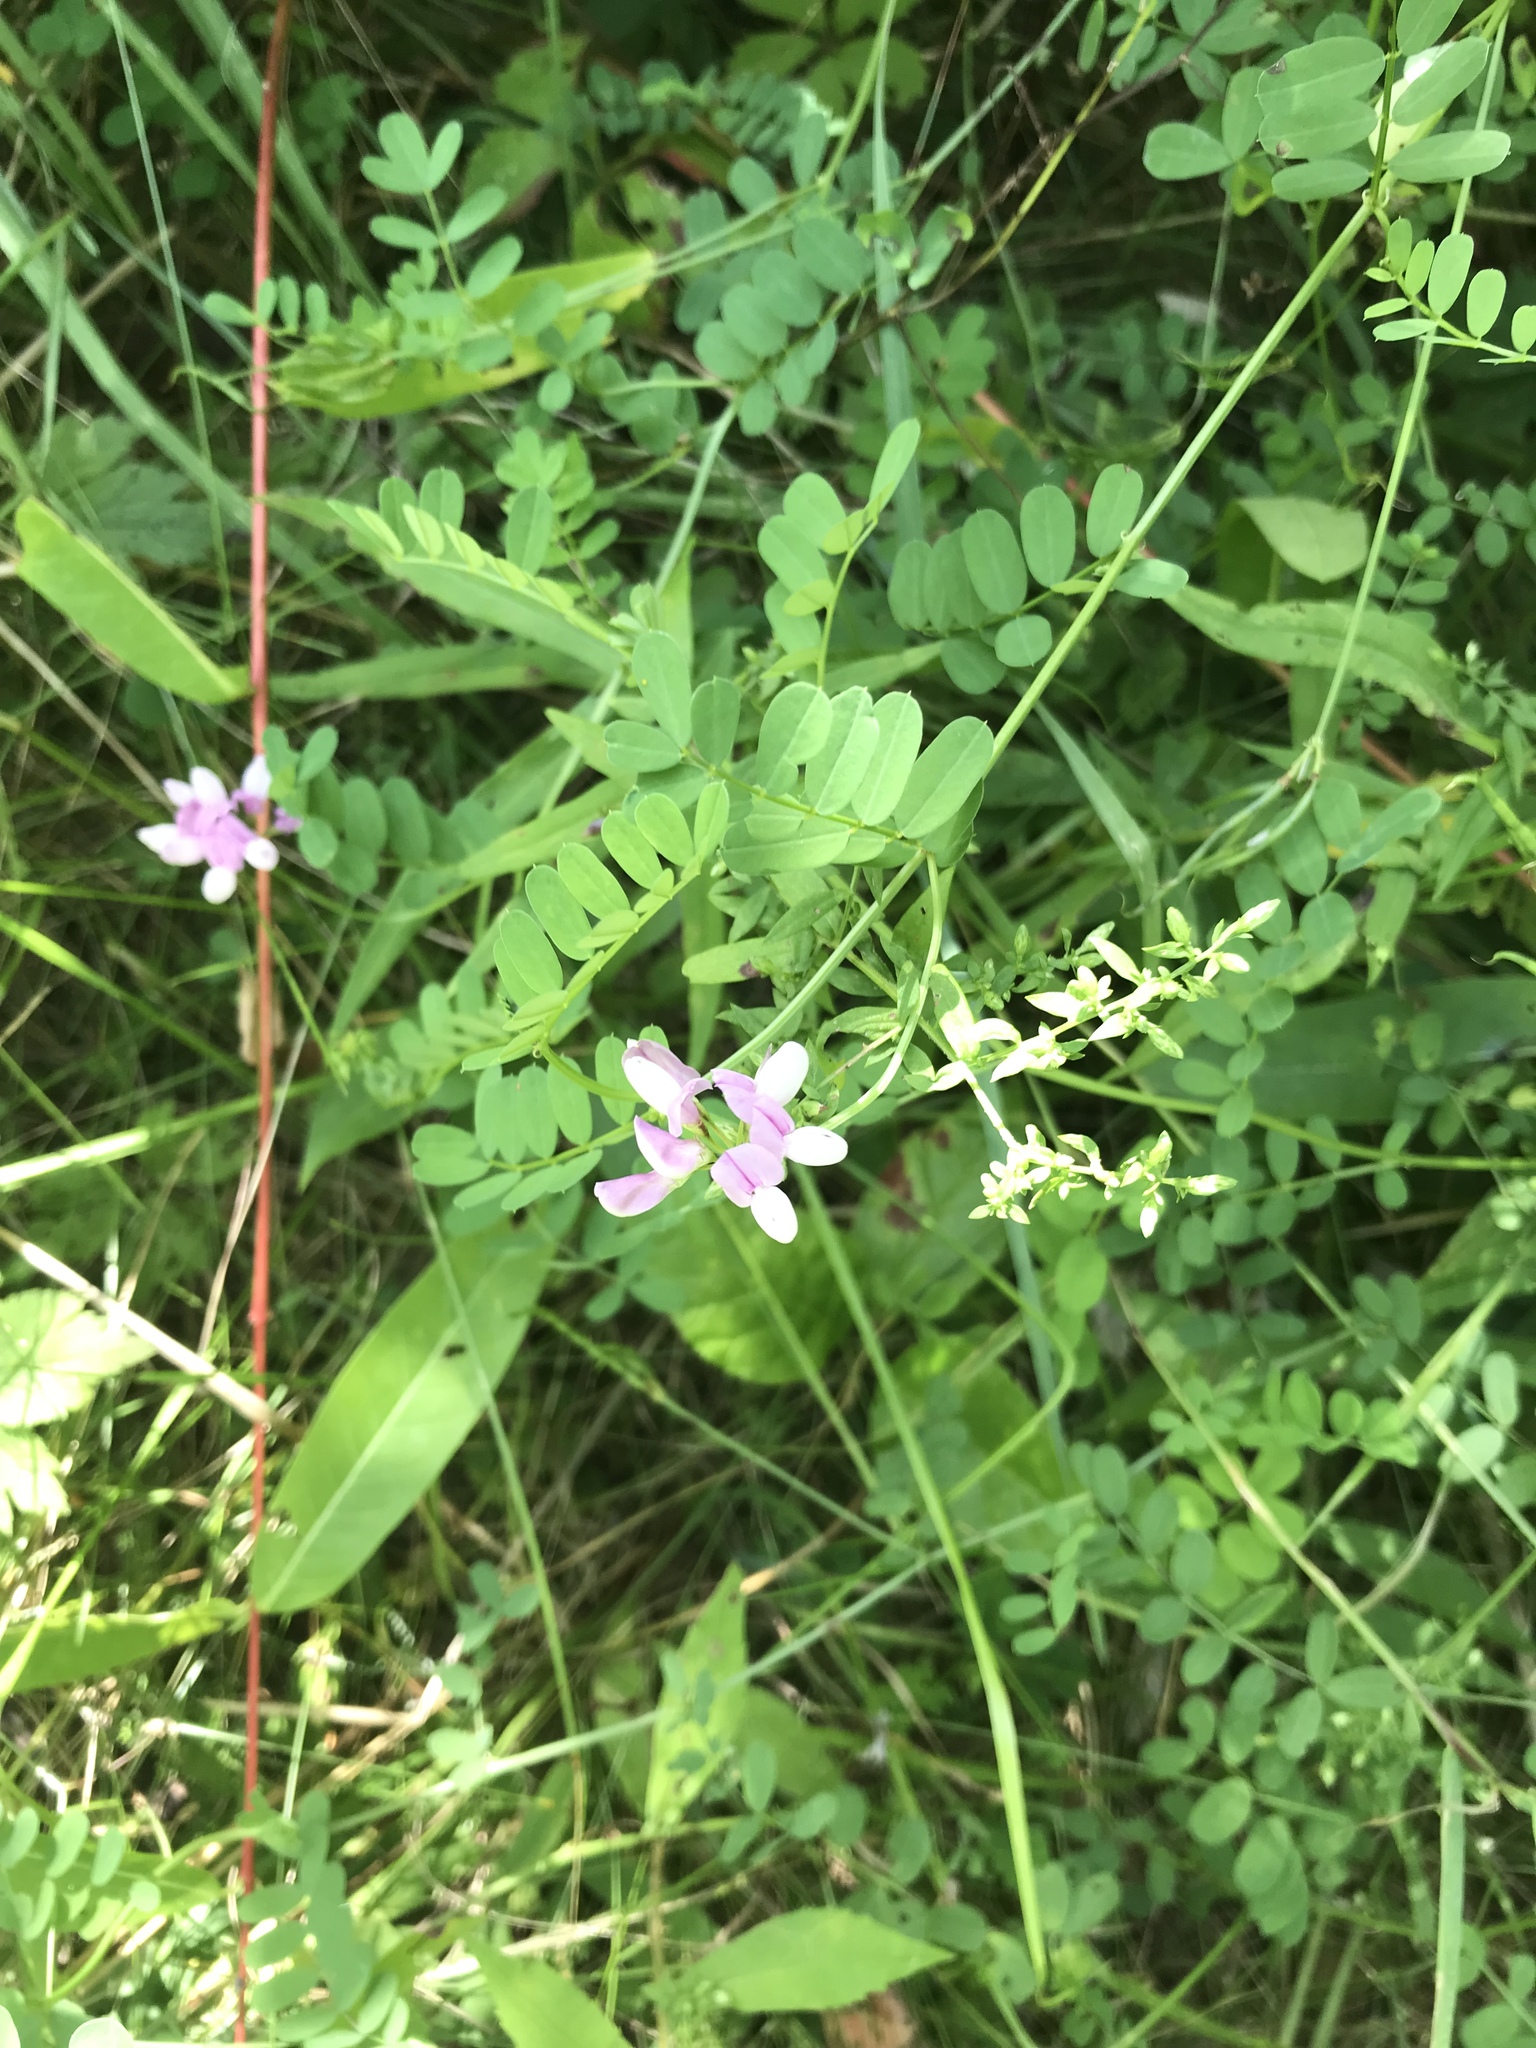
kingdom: Plantae
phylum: Tracheophyta
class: Magnoliopsida
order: Fabales
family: Fabaceae
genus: Coronilla
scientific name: Coronilla varia
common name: Crownvetch
